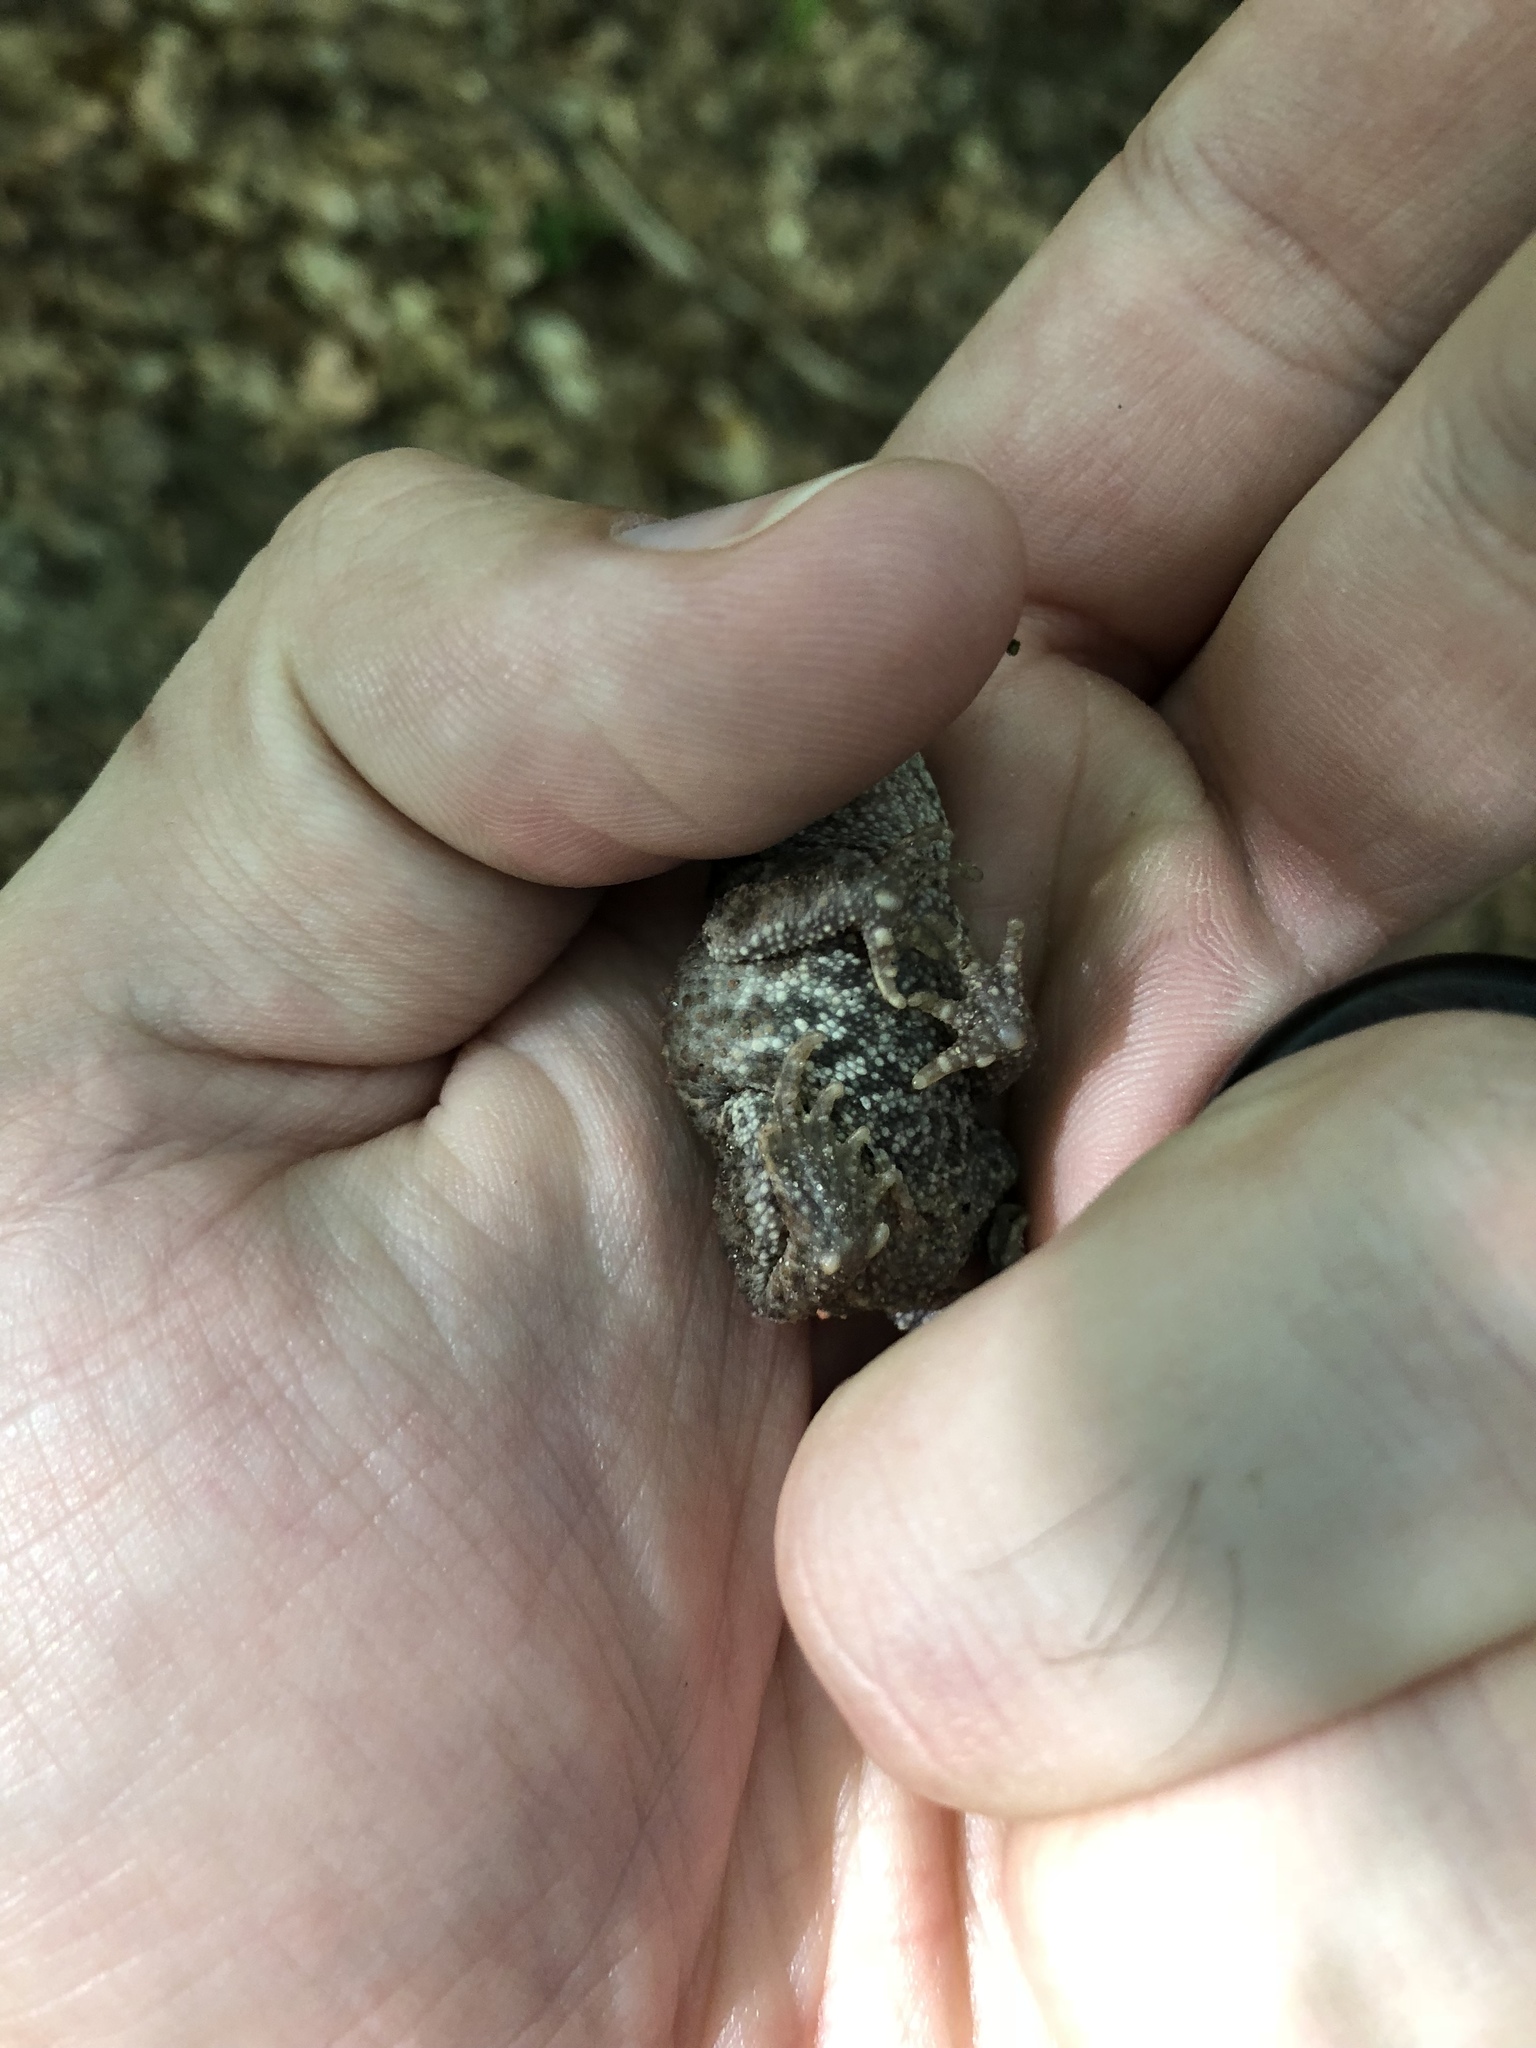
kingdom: Animalia
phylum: Chordata
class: Amphibia
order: Anura
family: Bufonidae
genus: Bufo
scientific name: Bufo bufo
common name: Common toad
